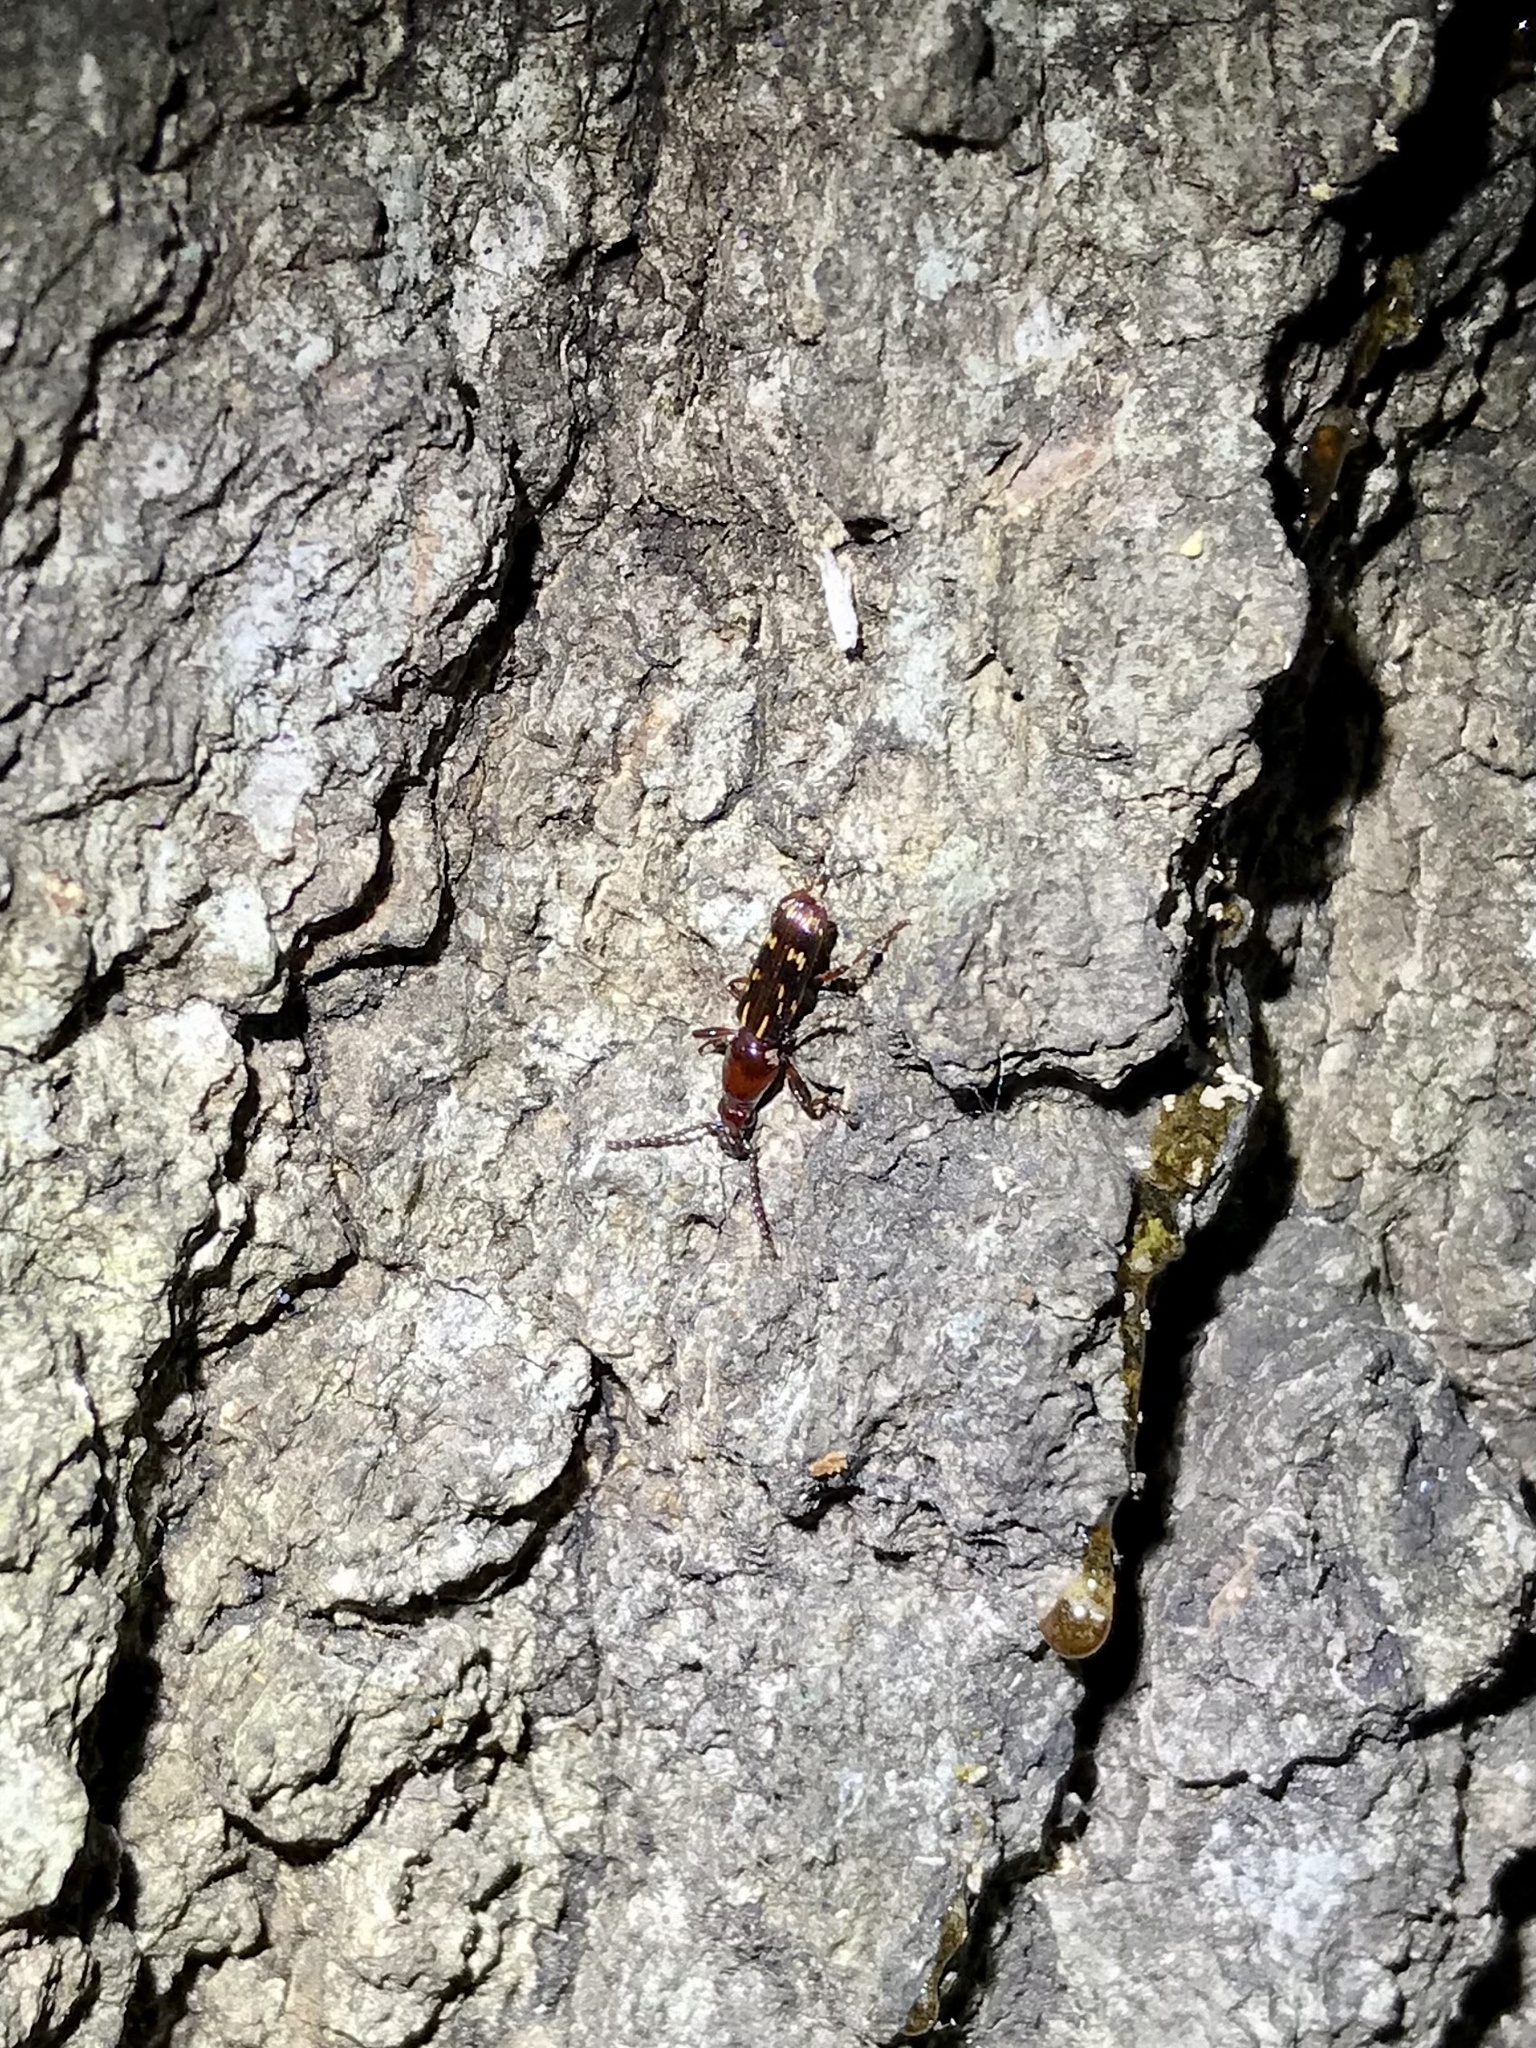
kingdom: Animalia
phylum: Arthropoda
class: Insecta
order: Coleoptera
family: Brentidae
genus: Arrenodes
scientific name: Arrenodes minutus
